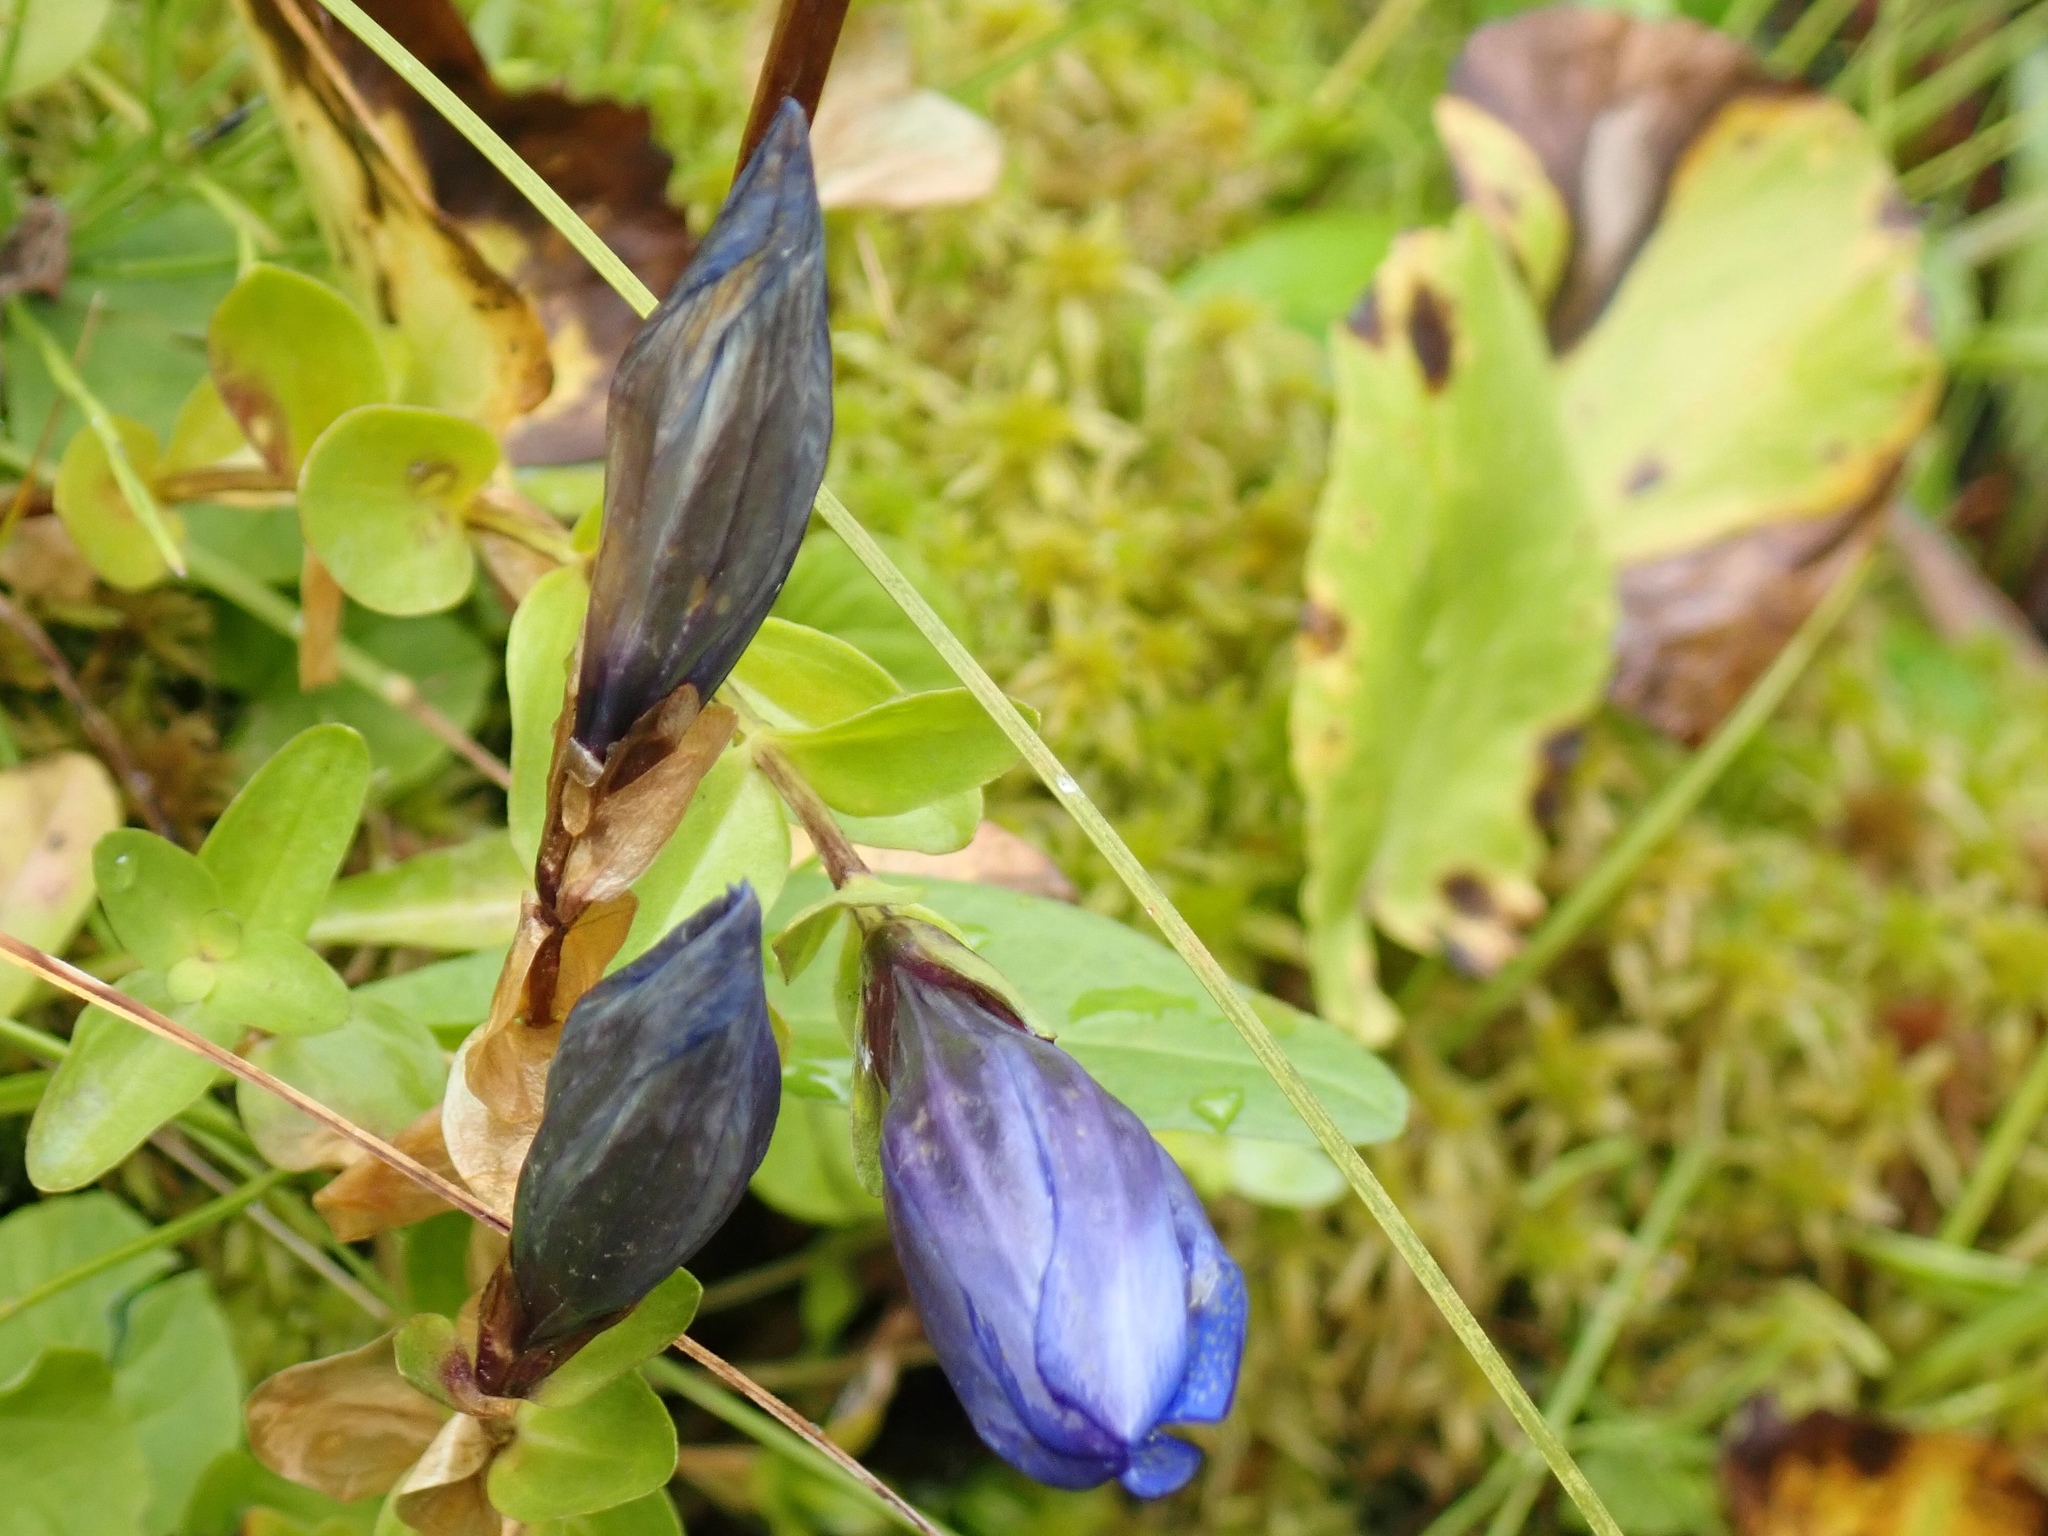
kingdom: Plantae
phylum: Tracheophyta
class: Magnoliopsida
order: Gentianales
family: Gentianaceae
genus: Gentiana
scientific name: Gentiana calycosa
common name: Rainier pleated gentian
